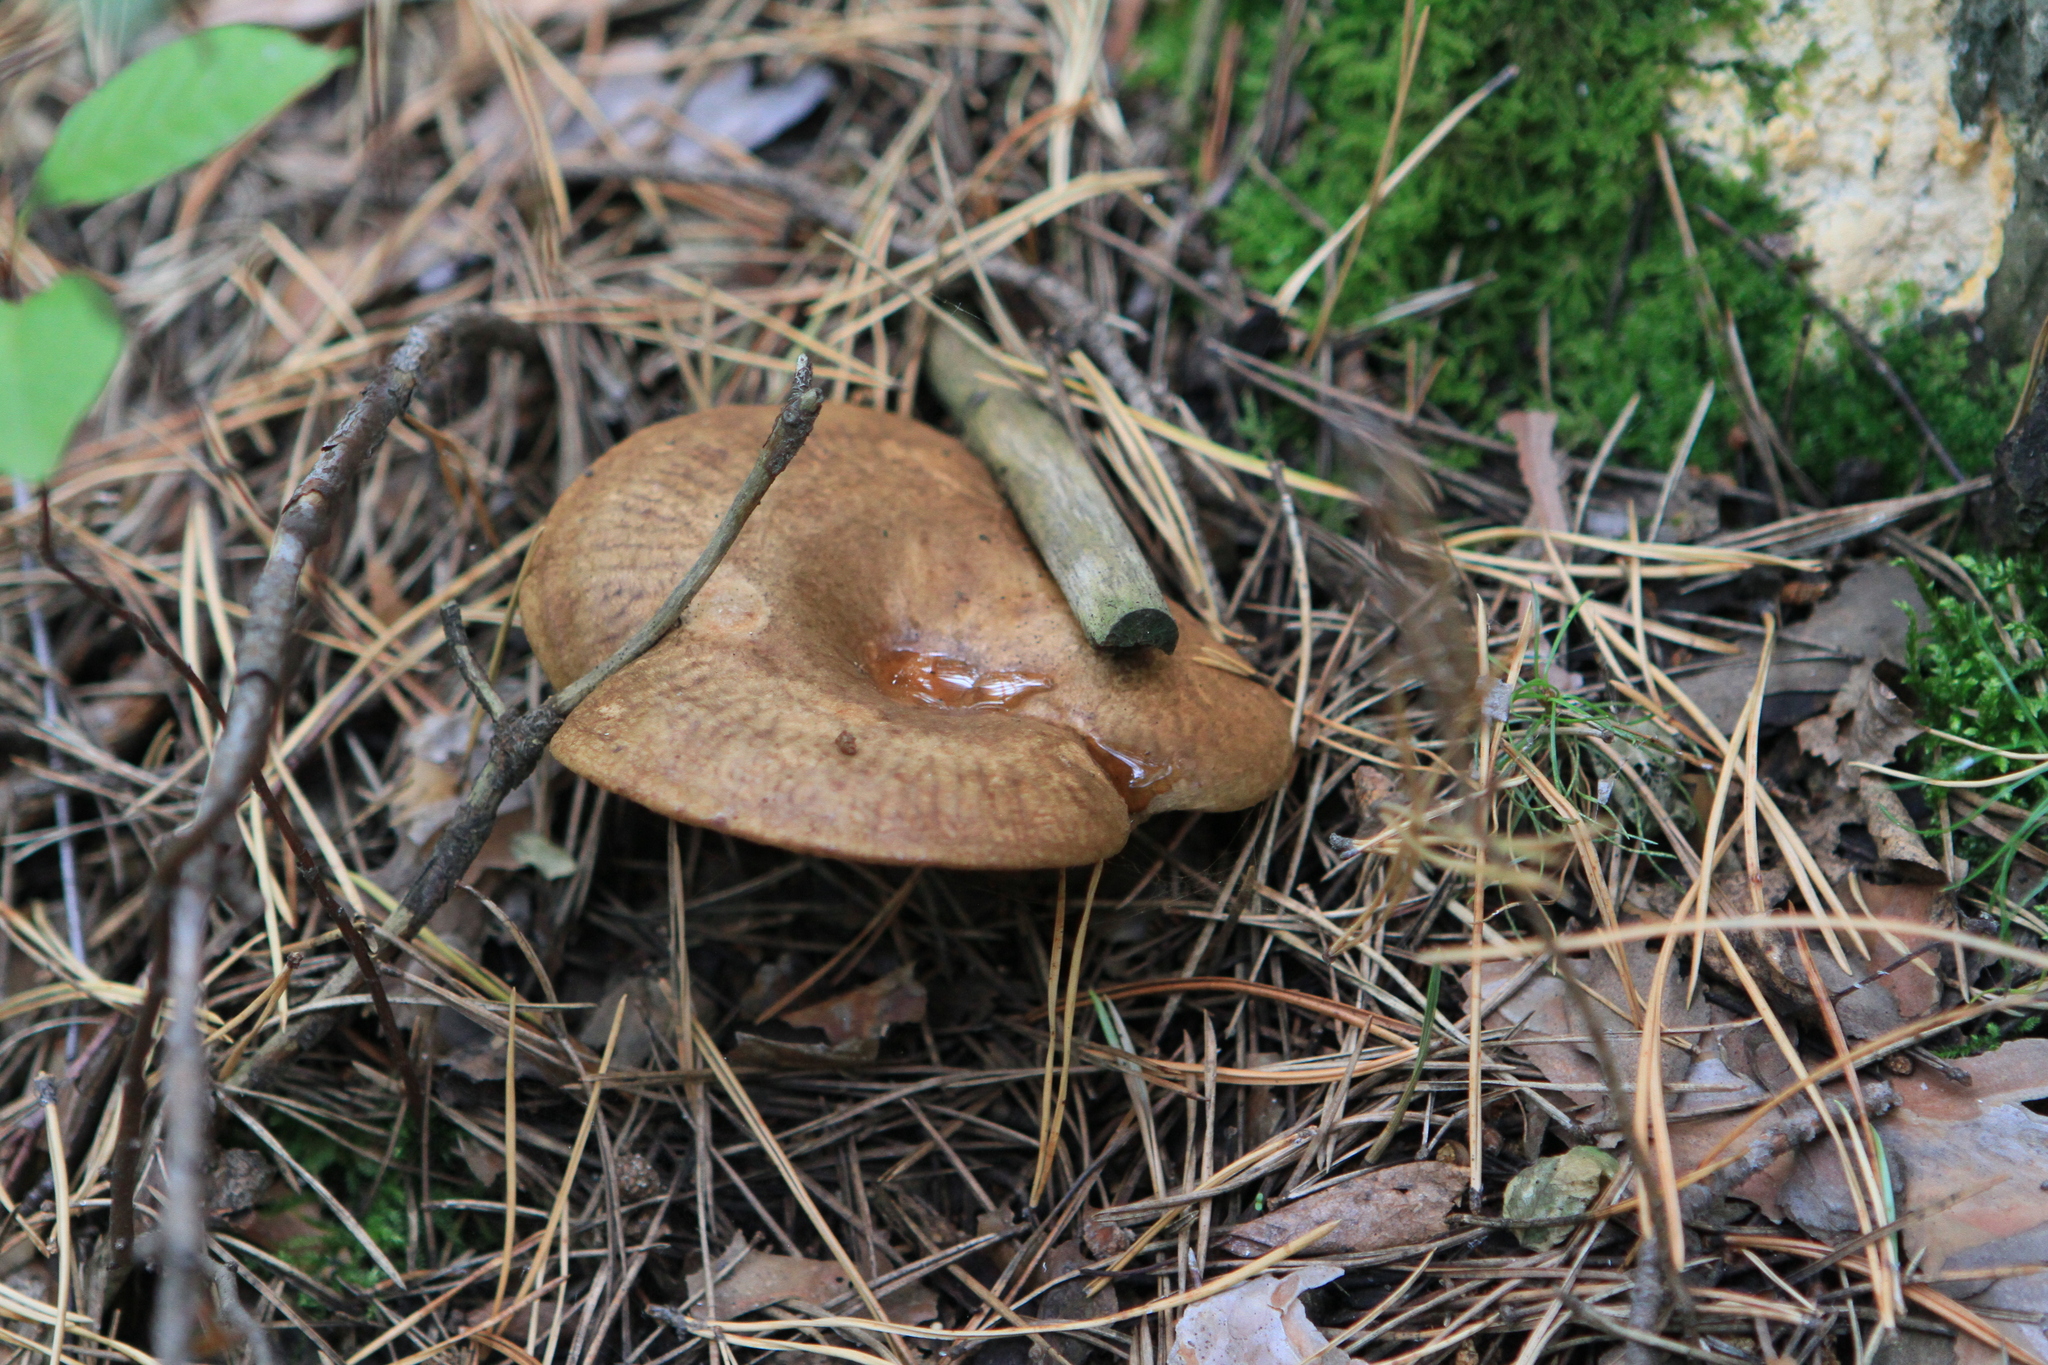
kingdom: Fungi
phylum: Basidiomycota
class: Agaricomycetes
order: Boletales
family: Paxillaceae
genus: Paxillus
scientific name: Paxillus involutus
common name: Brown roll rim
